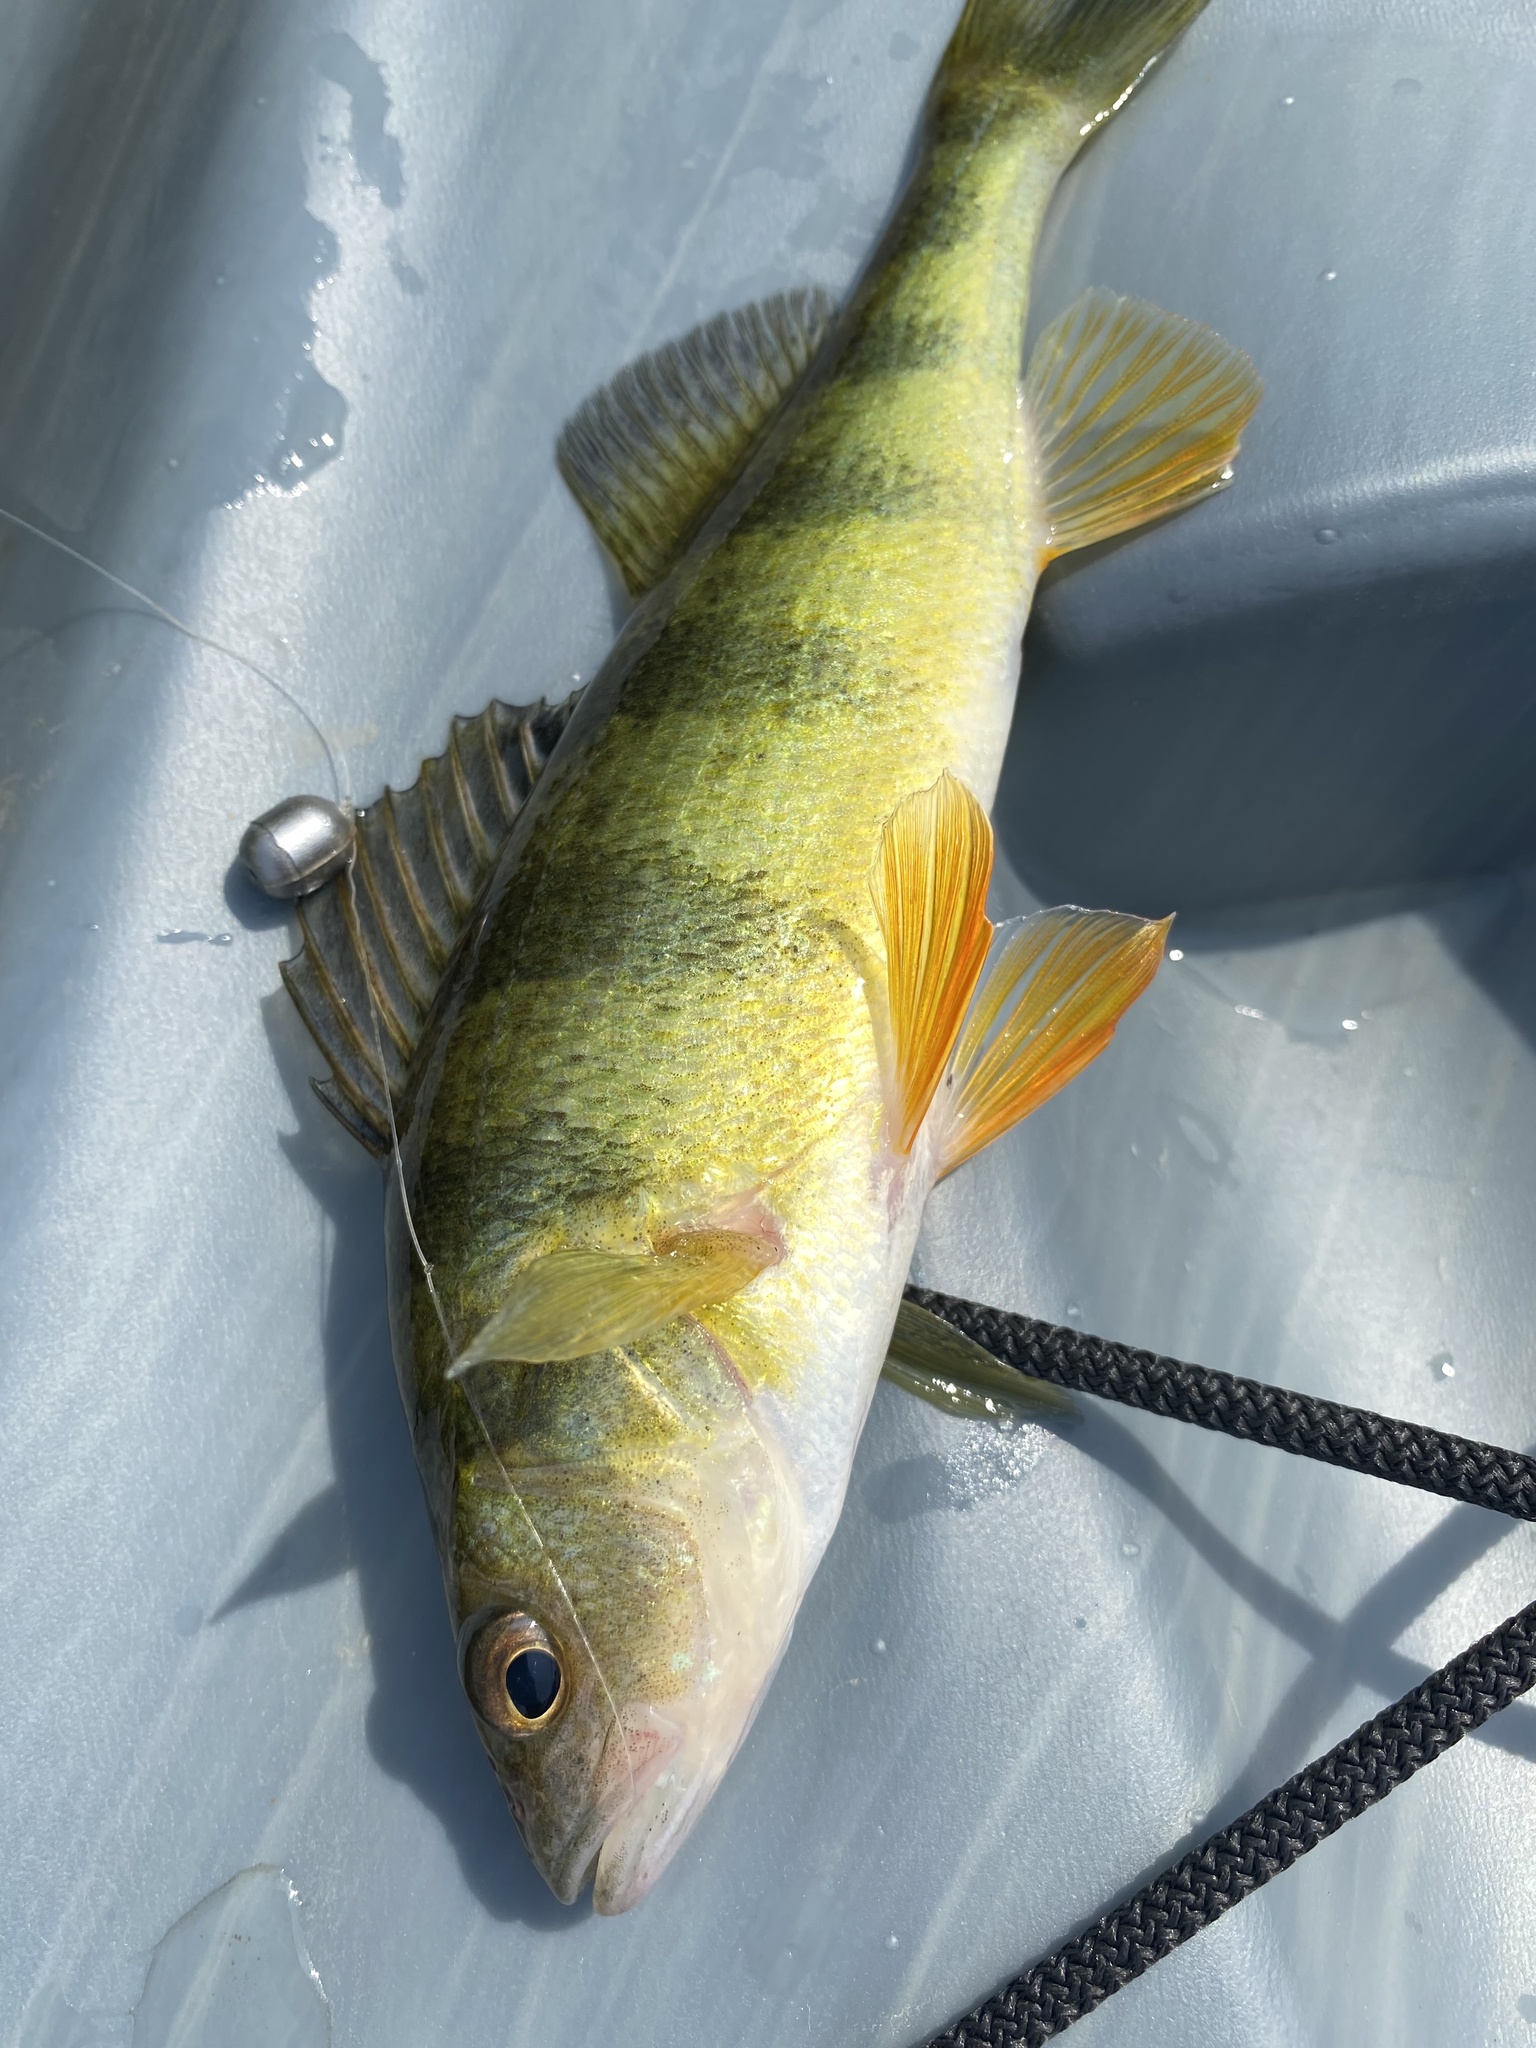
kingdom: Animalia
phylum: Chordata
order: Perciformes
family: Percidae
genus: Perca
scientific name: Perca flavescens
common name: Yellow perch
